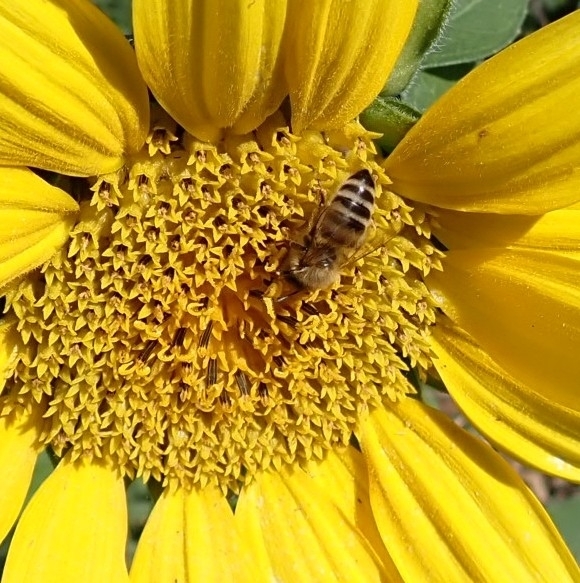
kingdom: Animalia
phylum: Arthropoda
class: Insecta
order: Hymenoptera
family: Apidae
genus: Apis
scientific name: Apis mellifera
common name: Honey bee
